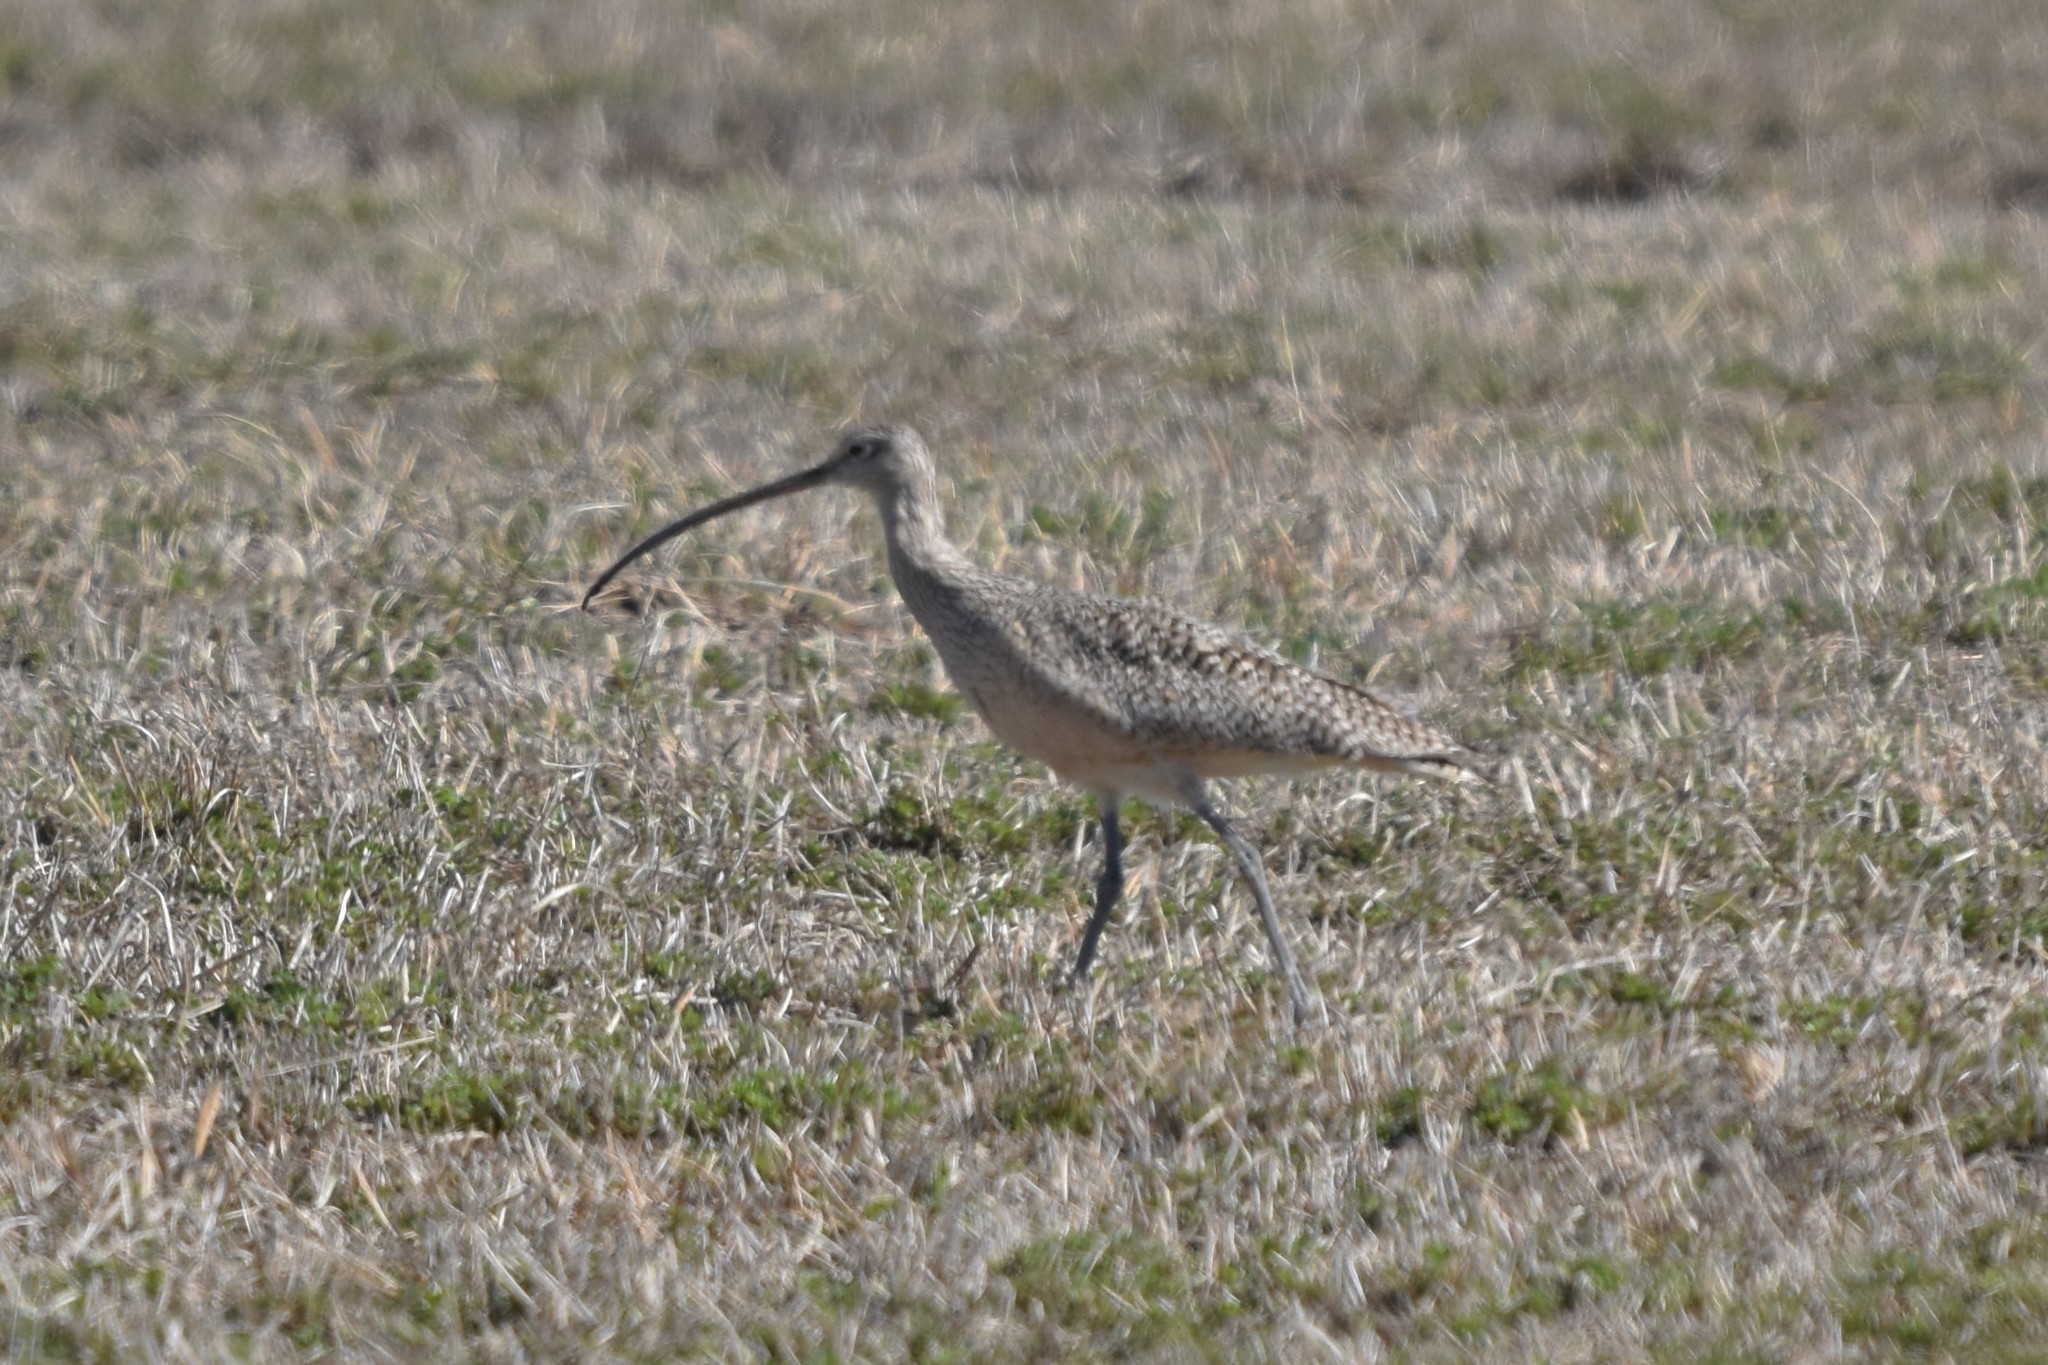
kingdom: Animalia
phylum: Chordata
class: Aves
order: Charadriiformes
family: Scolopacidae
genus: Numenius
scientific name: Numenius americanus
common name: Long-billed curlew
